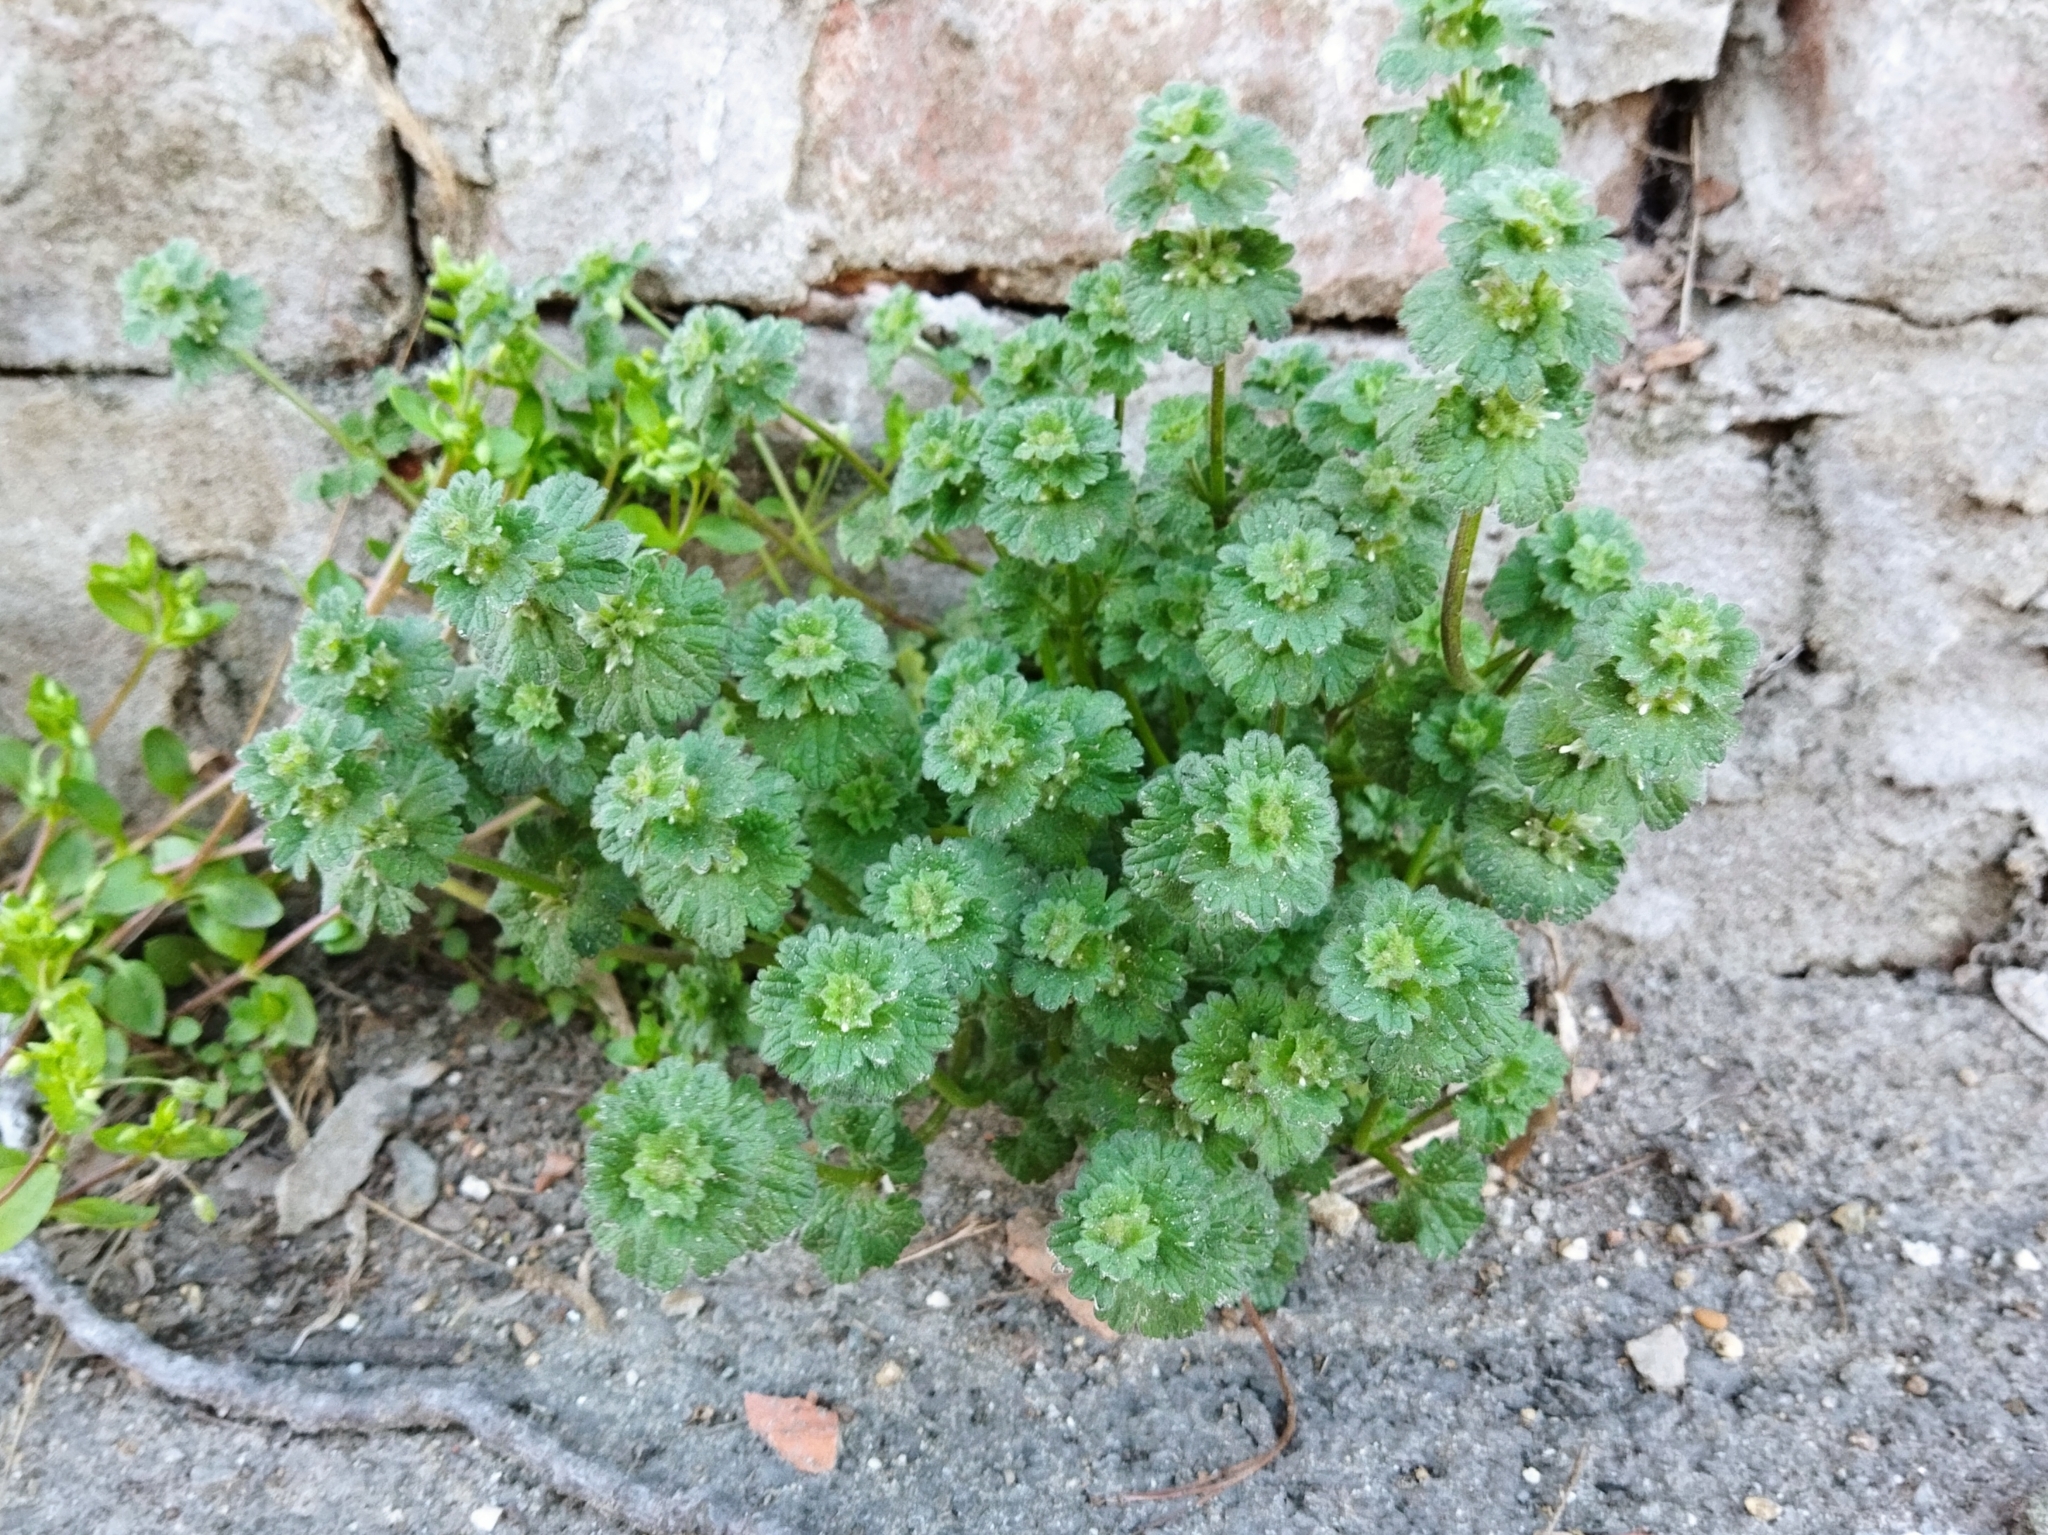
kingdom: Plantae
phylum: Tracheophyta
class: Magnoliopsida
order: Lamiales
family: Lamiaceae
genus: Lamium
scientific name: Lamium amplexicaule
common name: Henbit dead-nettle
